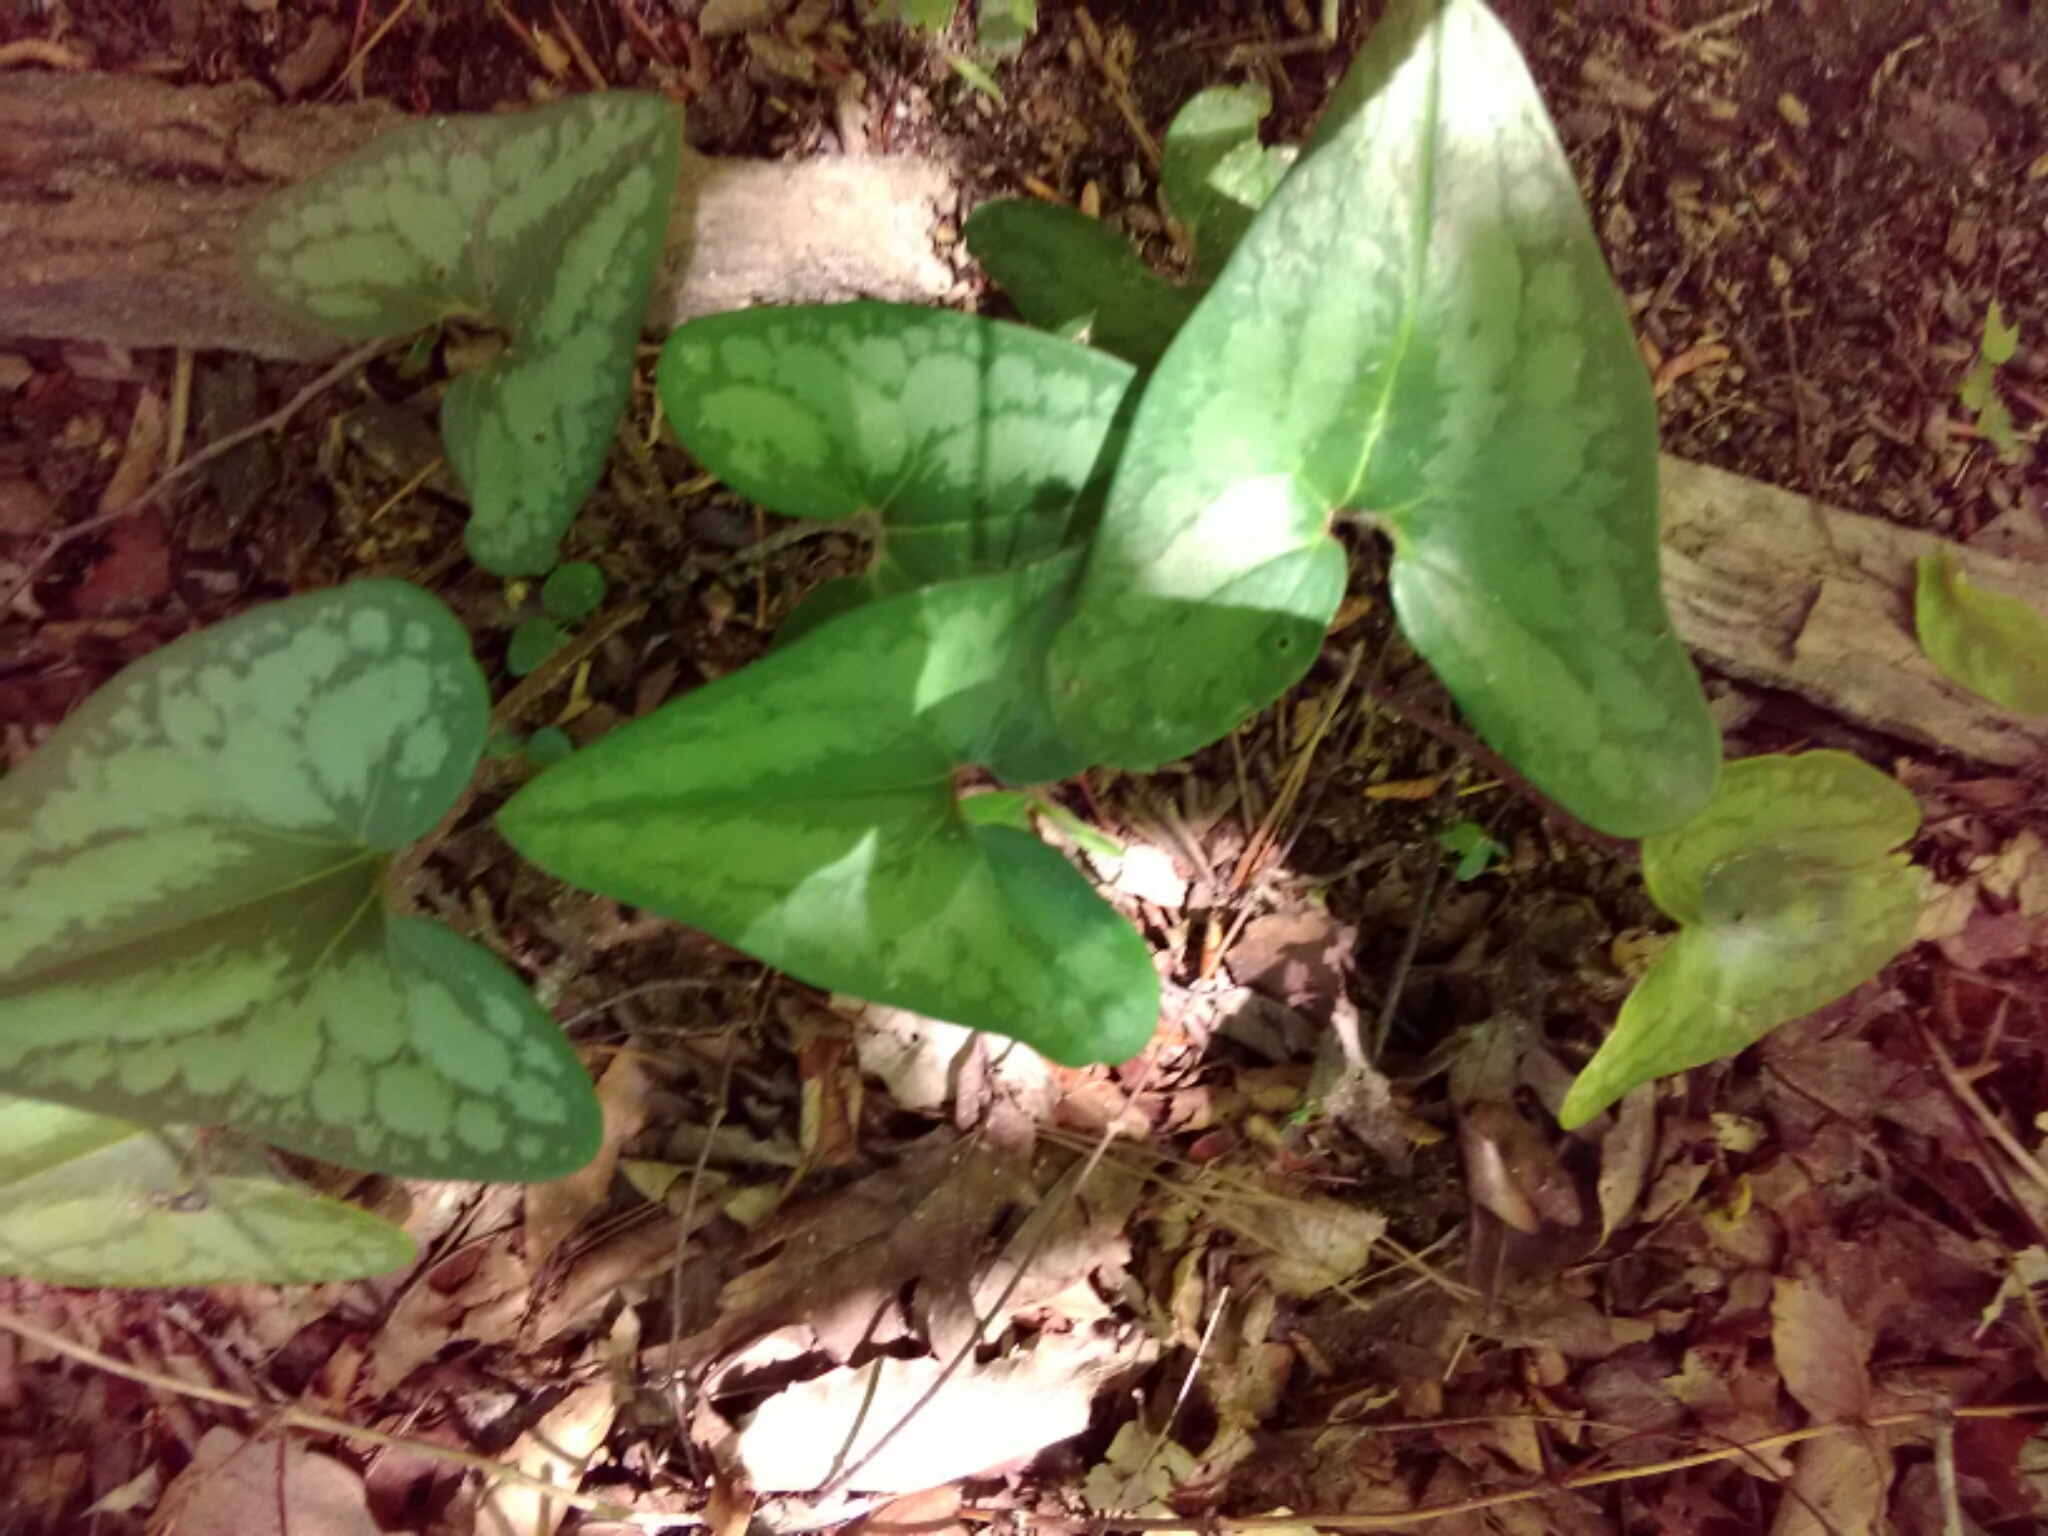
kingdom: Plantae
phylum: Tracheophyta
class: Magnoliopsida
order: Piperales
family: Aristolochiaceae
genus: Hexastylis
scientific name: Hexastylis arifolia
